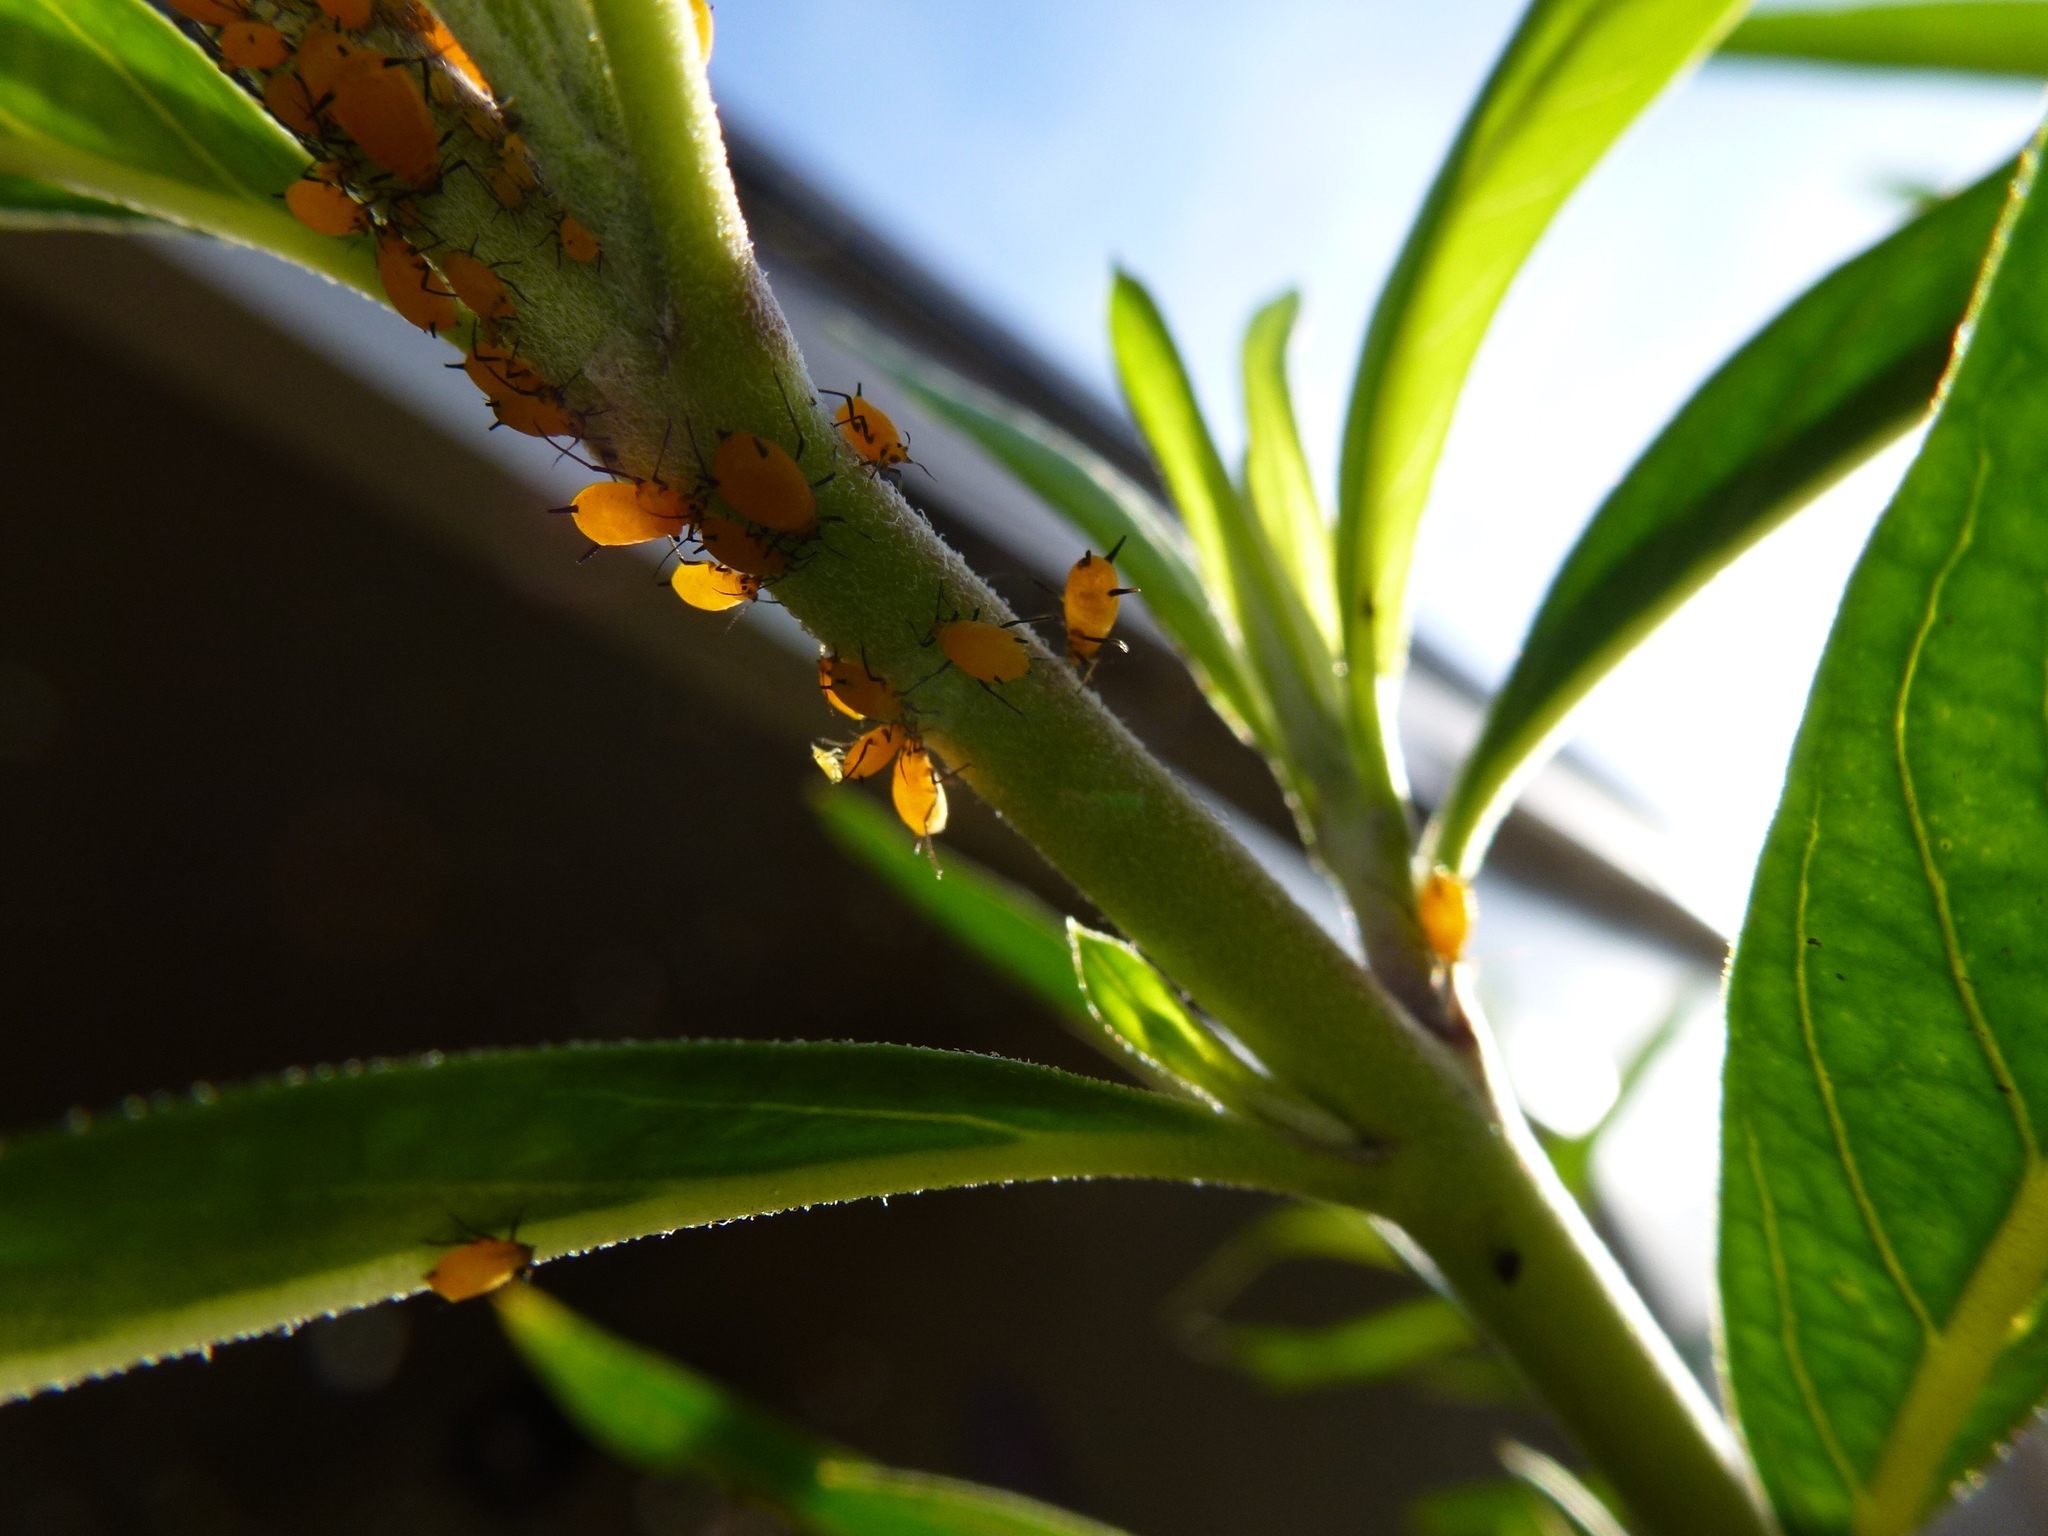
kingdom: Animalia
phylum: Arthropoda
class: Insecta
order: Hemiptera
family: Aphididae
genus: Aphis
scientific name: Aphis nerii
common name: Oleander aphid
